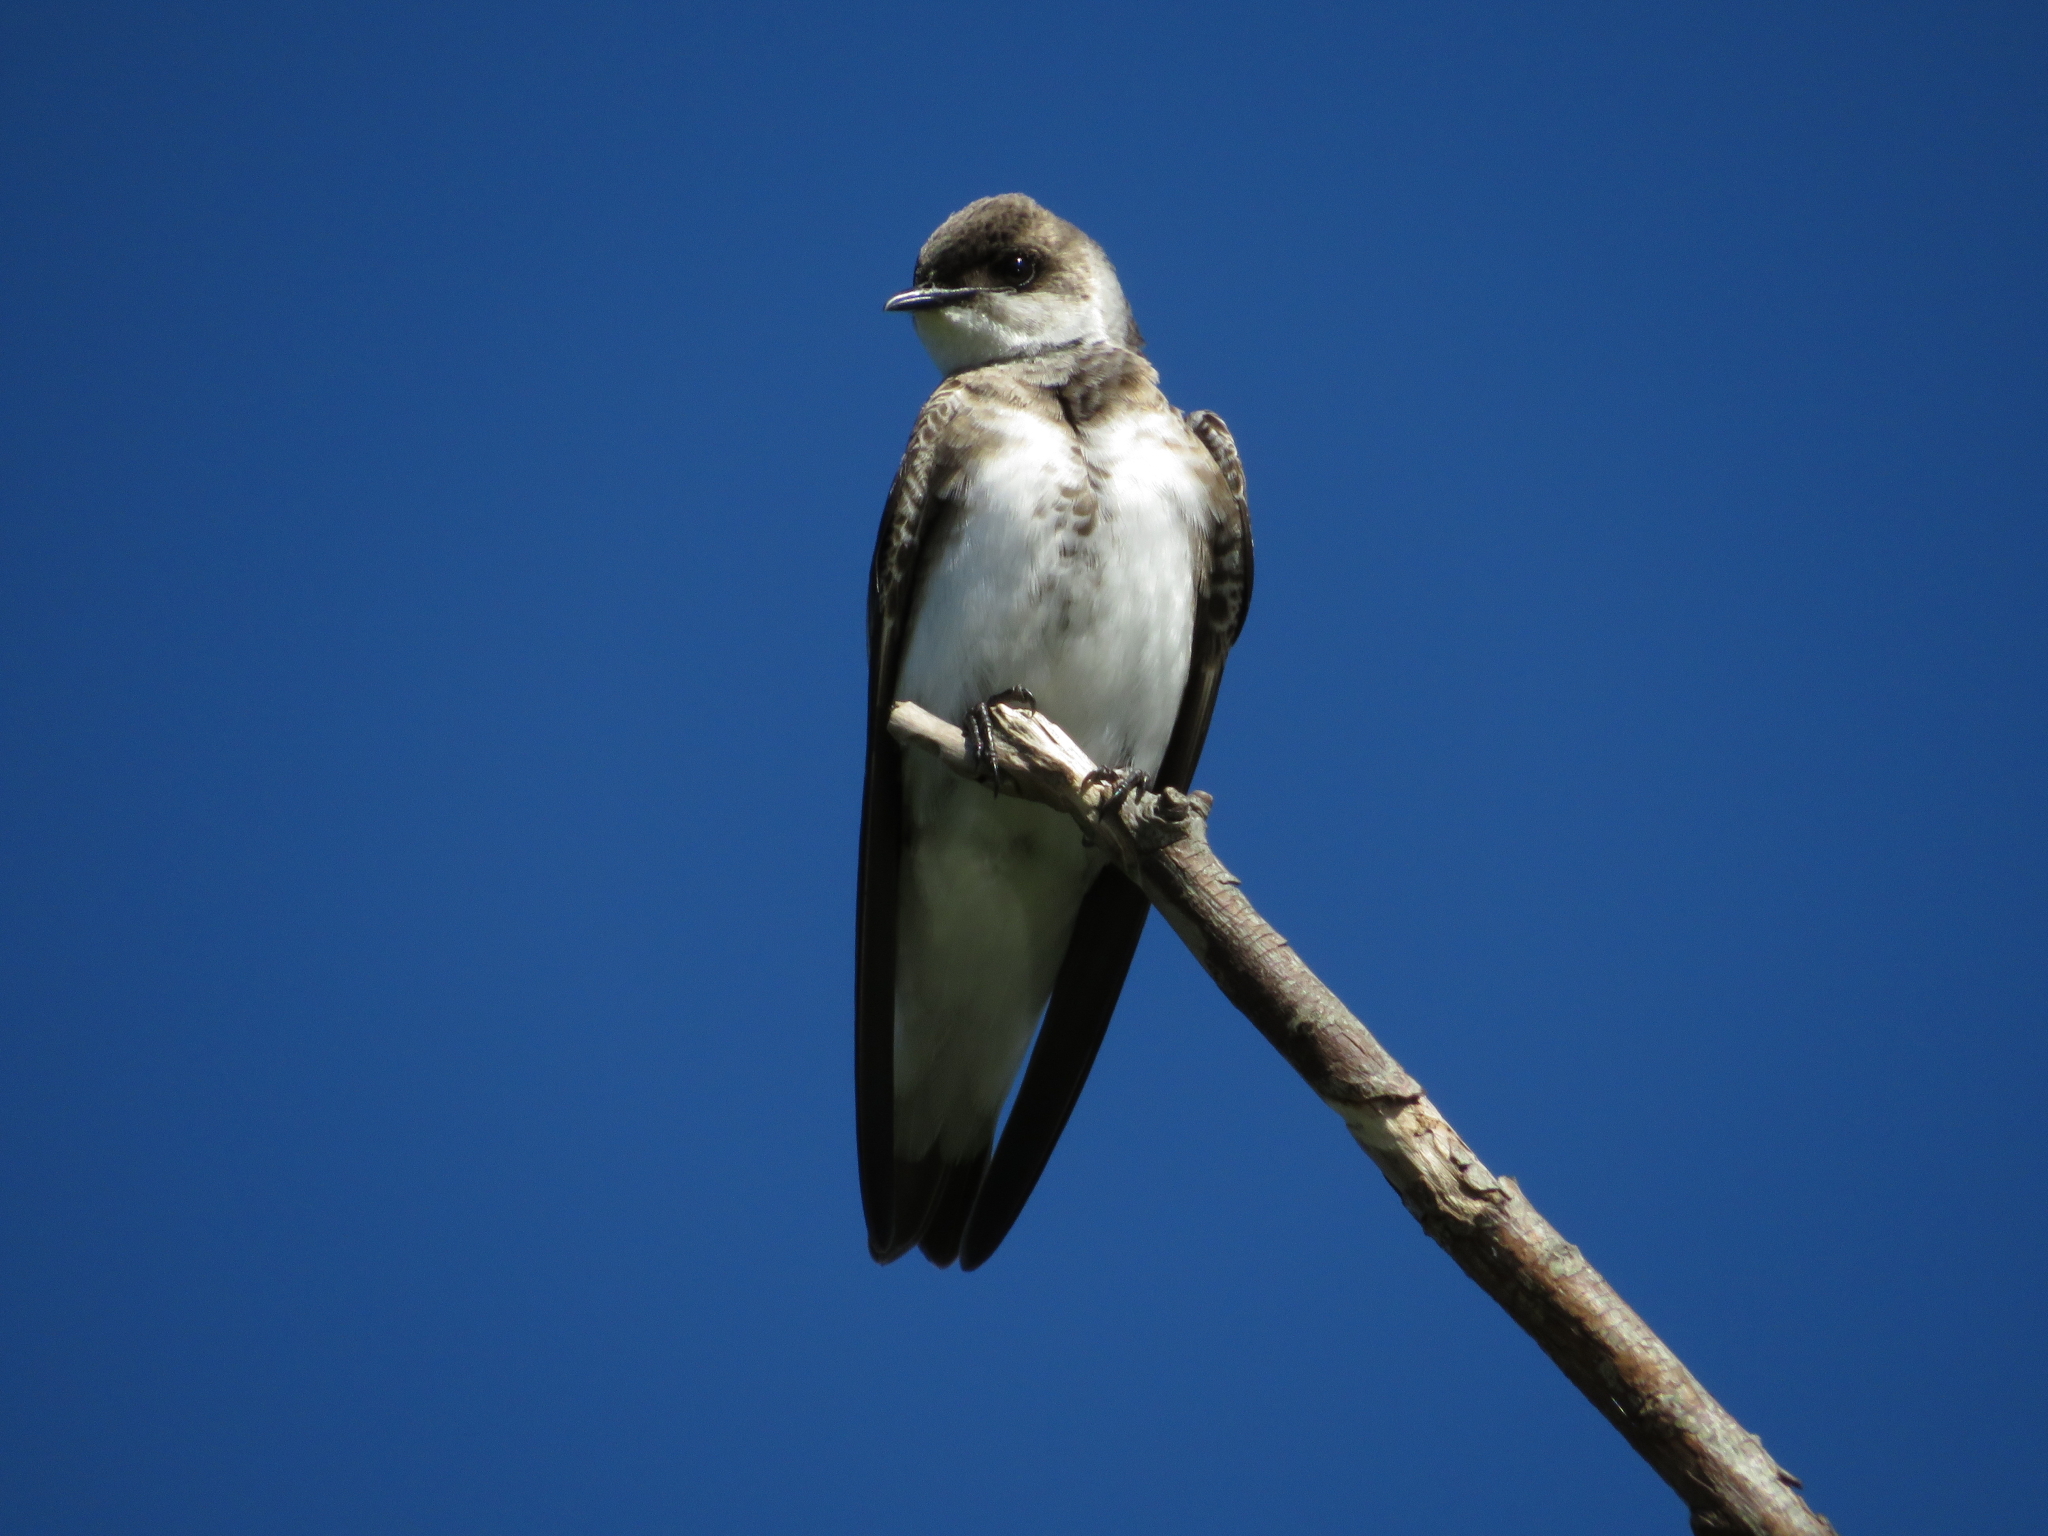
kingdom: Animalia
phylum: Chordata
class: Aves
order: Passeriformes
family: Hirundinidae
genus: Progne
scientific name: Progne tapera
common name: Brown-chested martin
